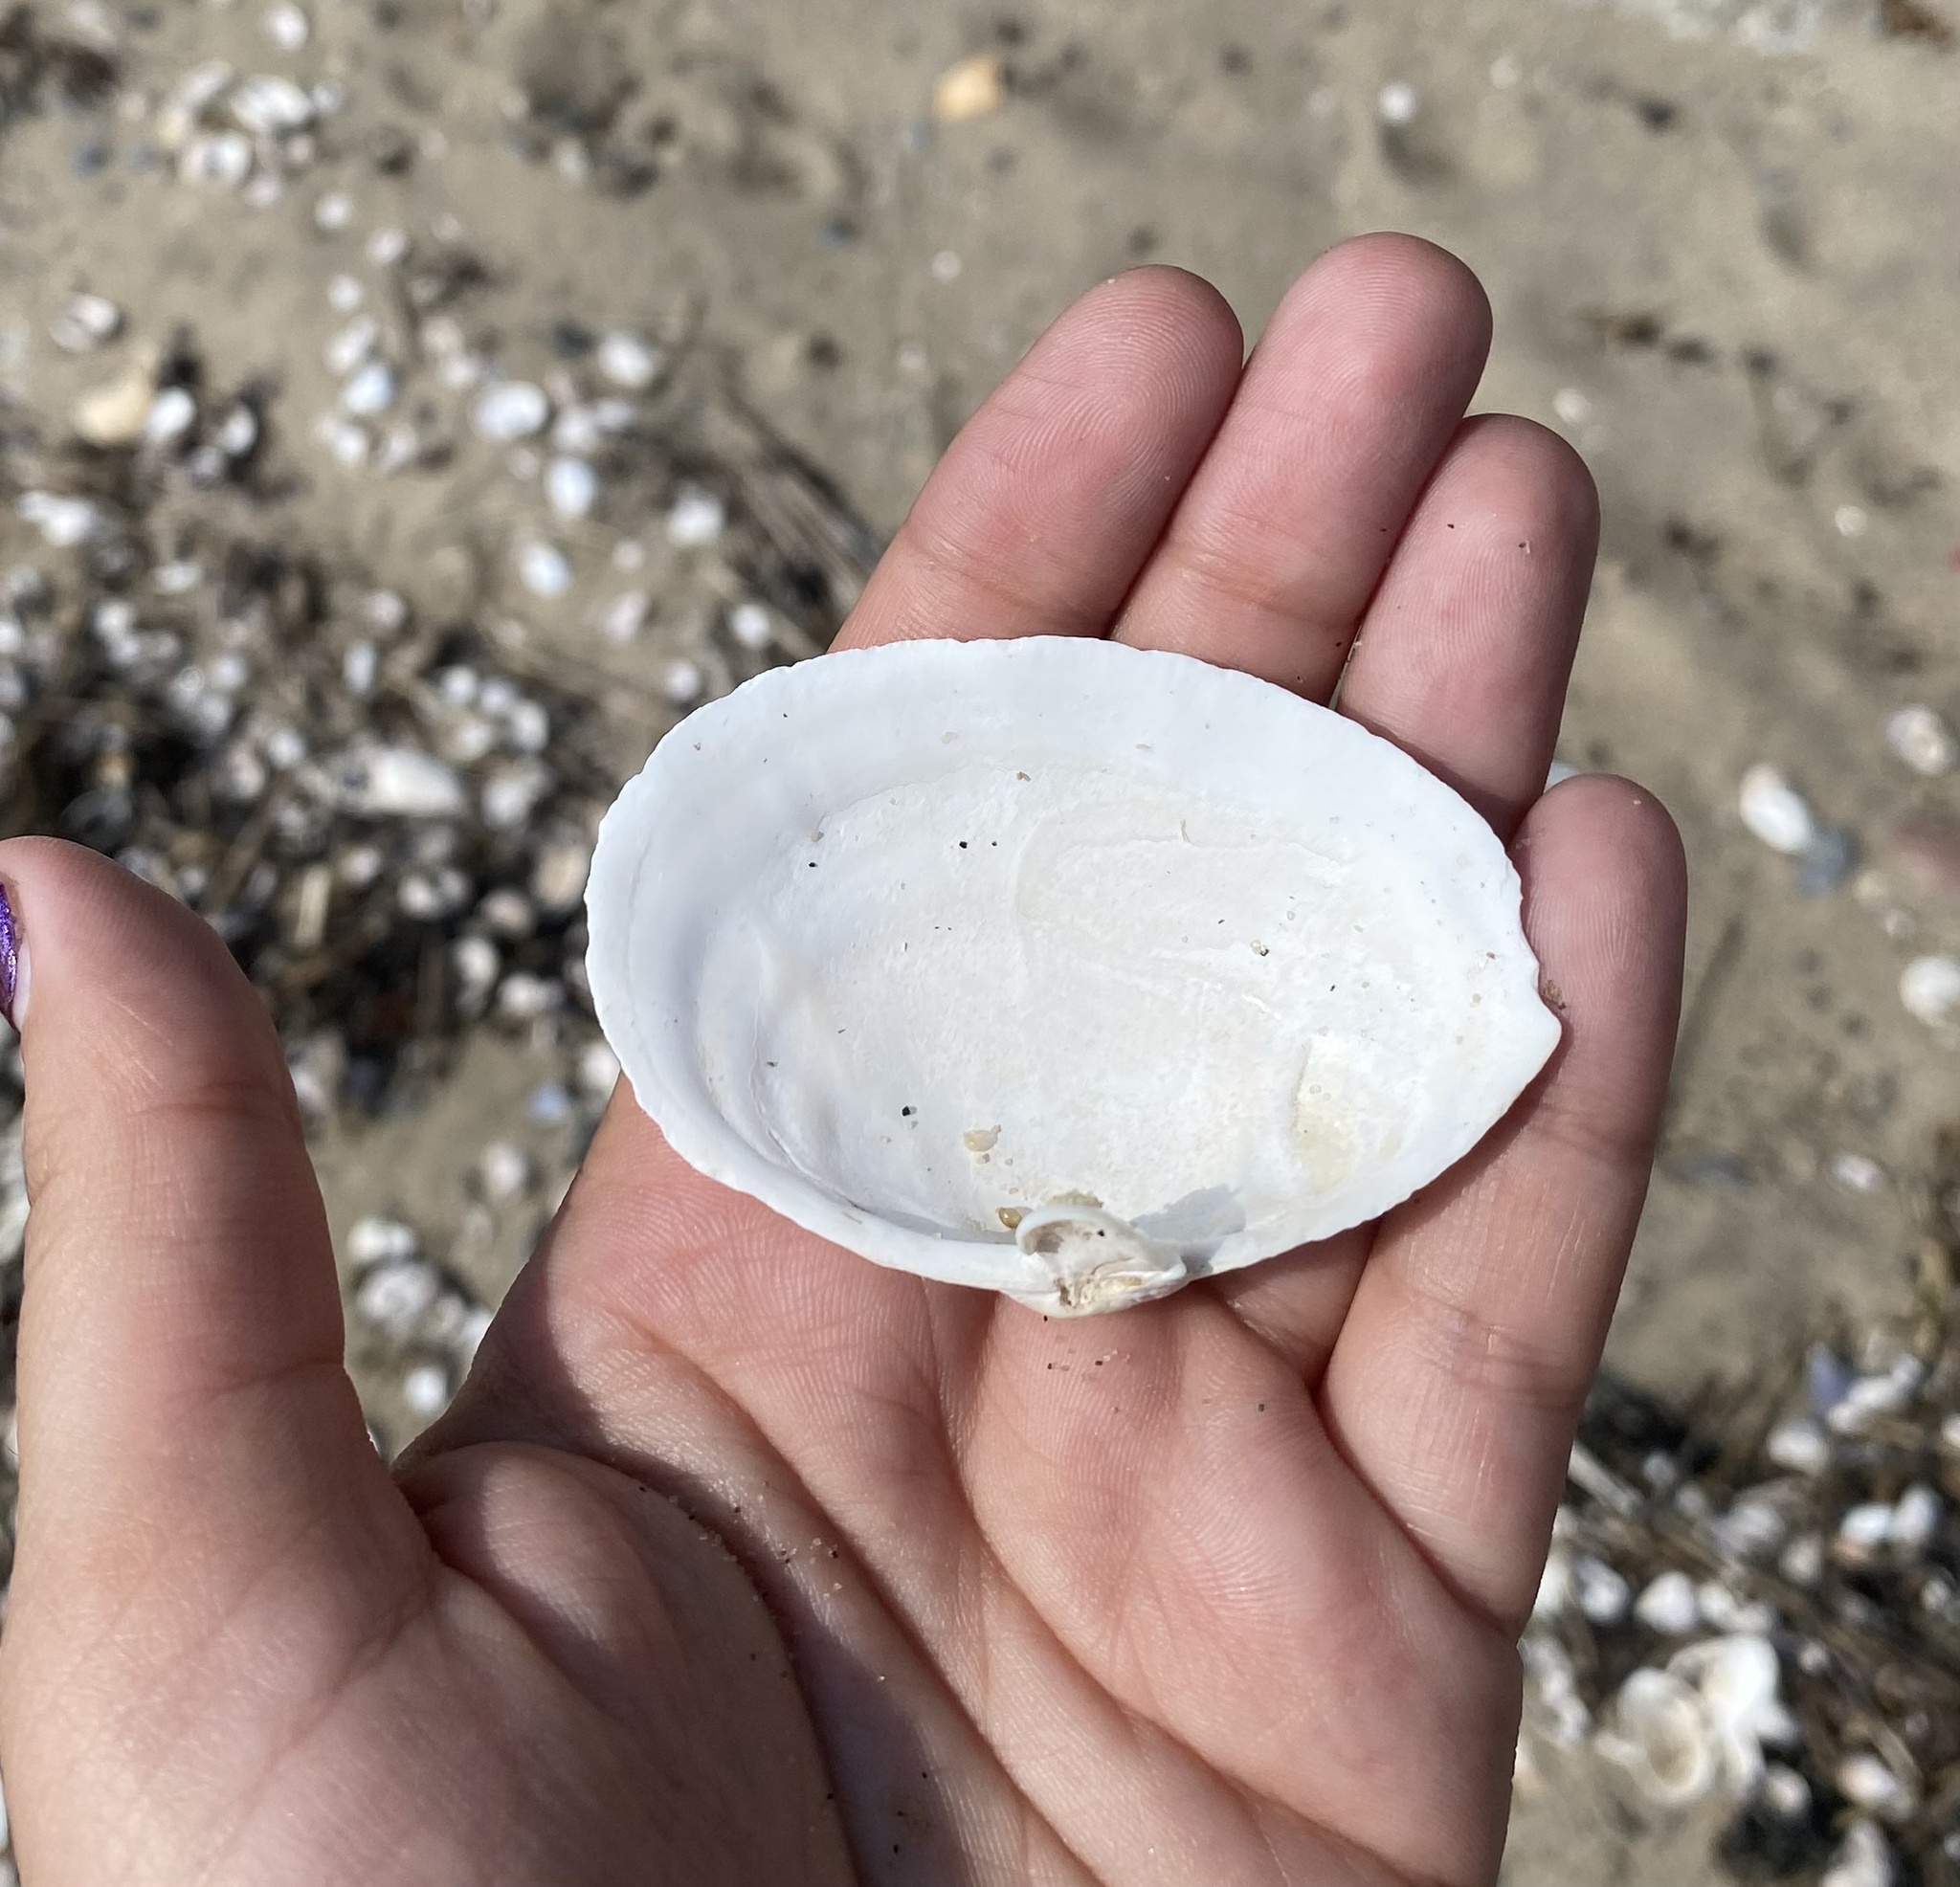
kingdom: Animalia
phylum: Mollusca
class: Bivalvia
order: Myida
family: Myidae
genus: Mya
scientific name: Mya arenaria
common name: Soft-shelled clam
